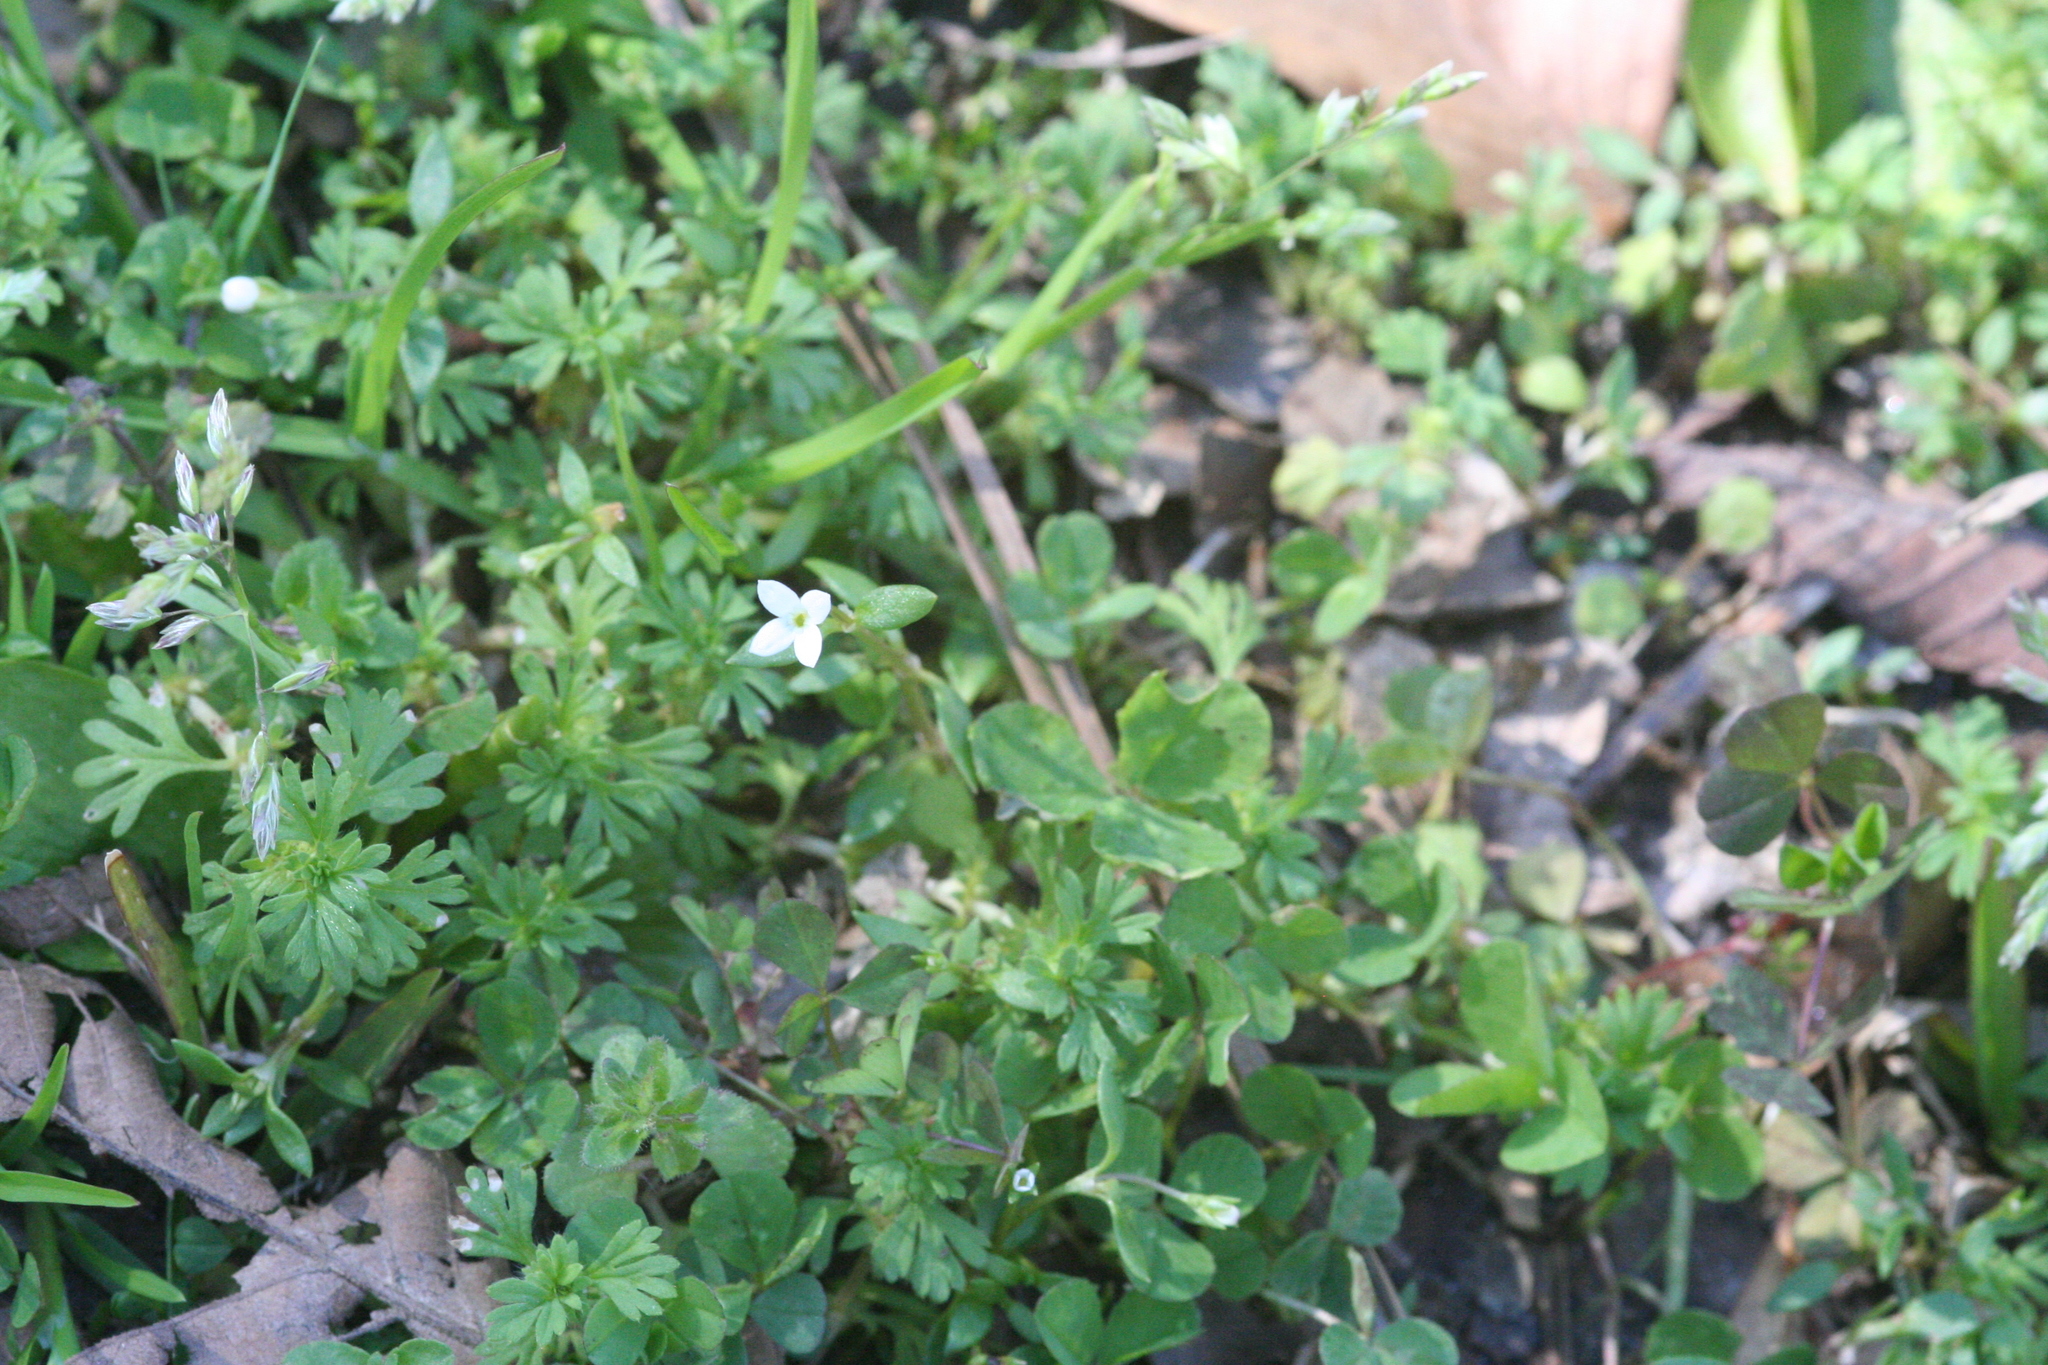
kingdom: Plantae
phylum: Tracheophyta
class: Magnoliopsida
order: Gentianales
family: Rubiaceae
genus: Houstonia
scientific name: Houstonia pusilla
